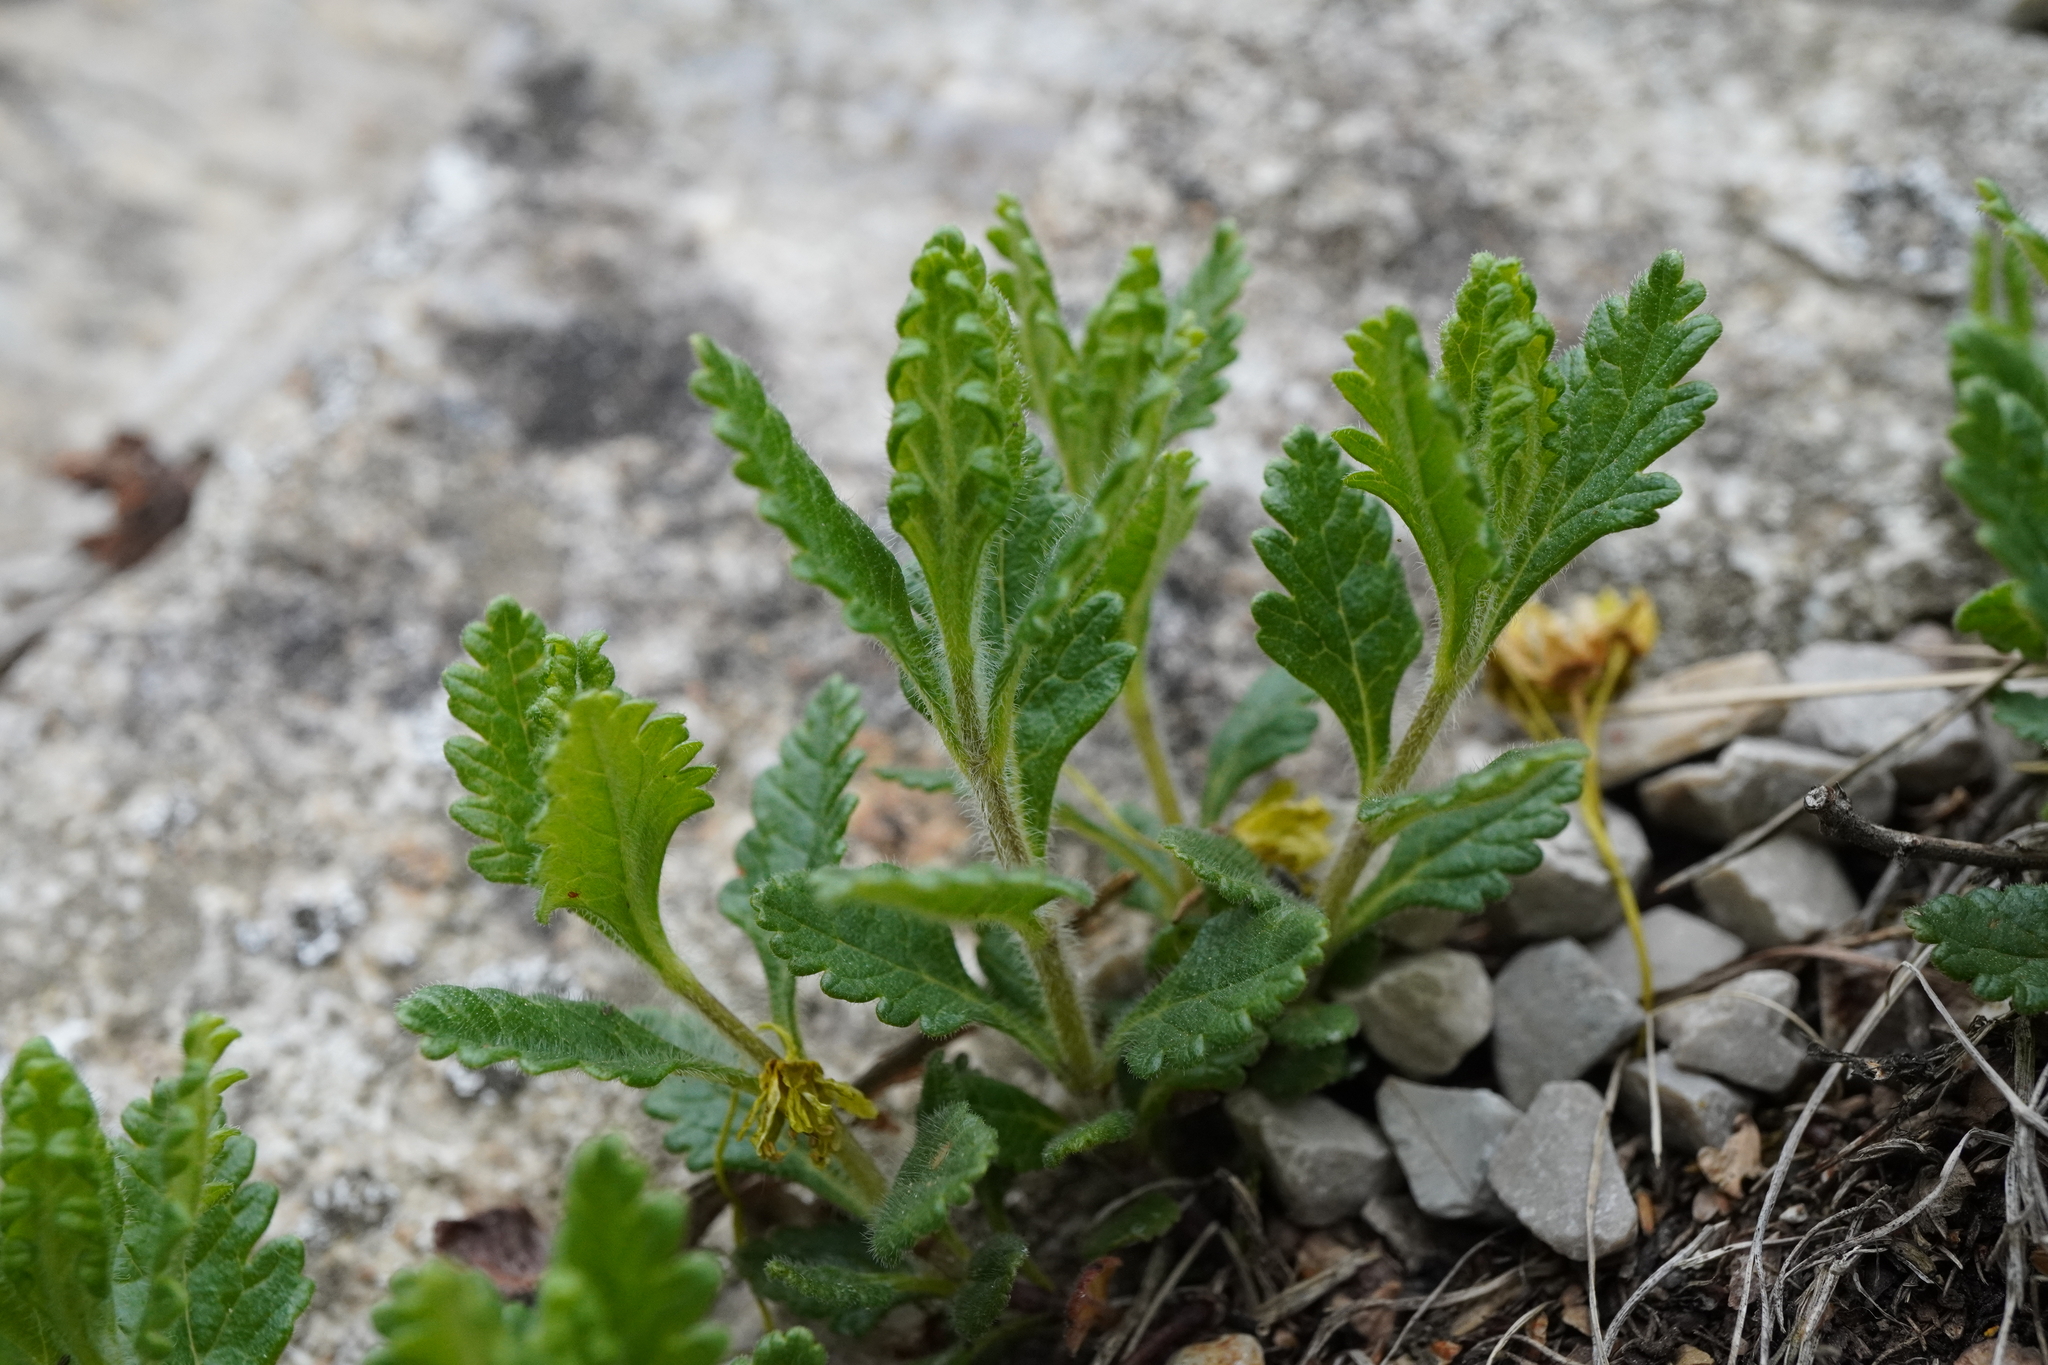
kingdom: Plantae
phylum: Tracheophyta
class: Magnoliopsida
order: Lamiales
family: Lamiaceae
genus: Teucrium
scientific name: Teucrium chamaedrys
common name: Wall germander
